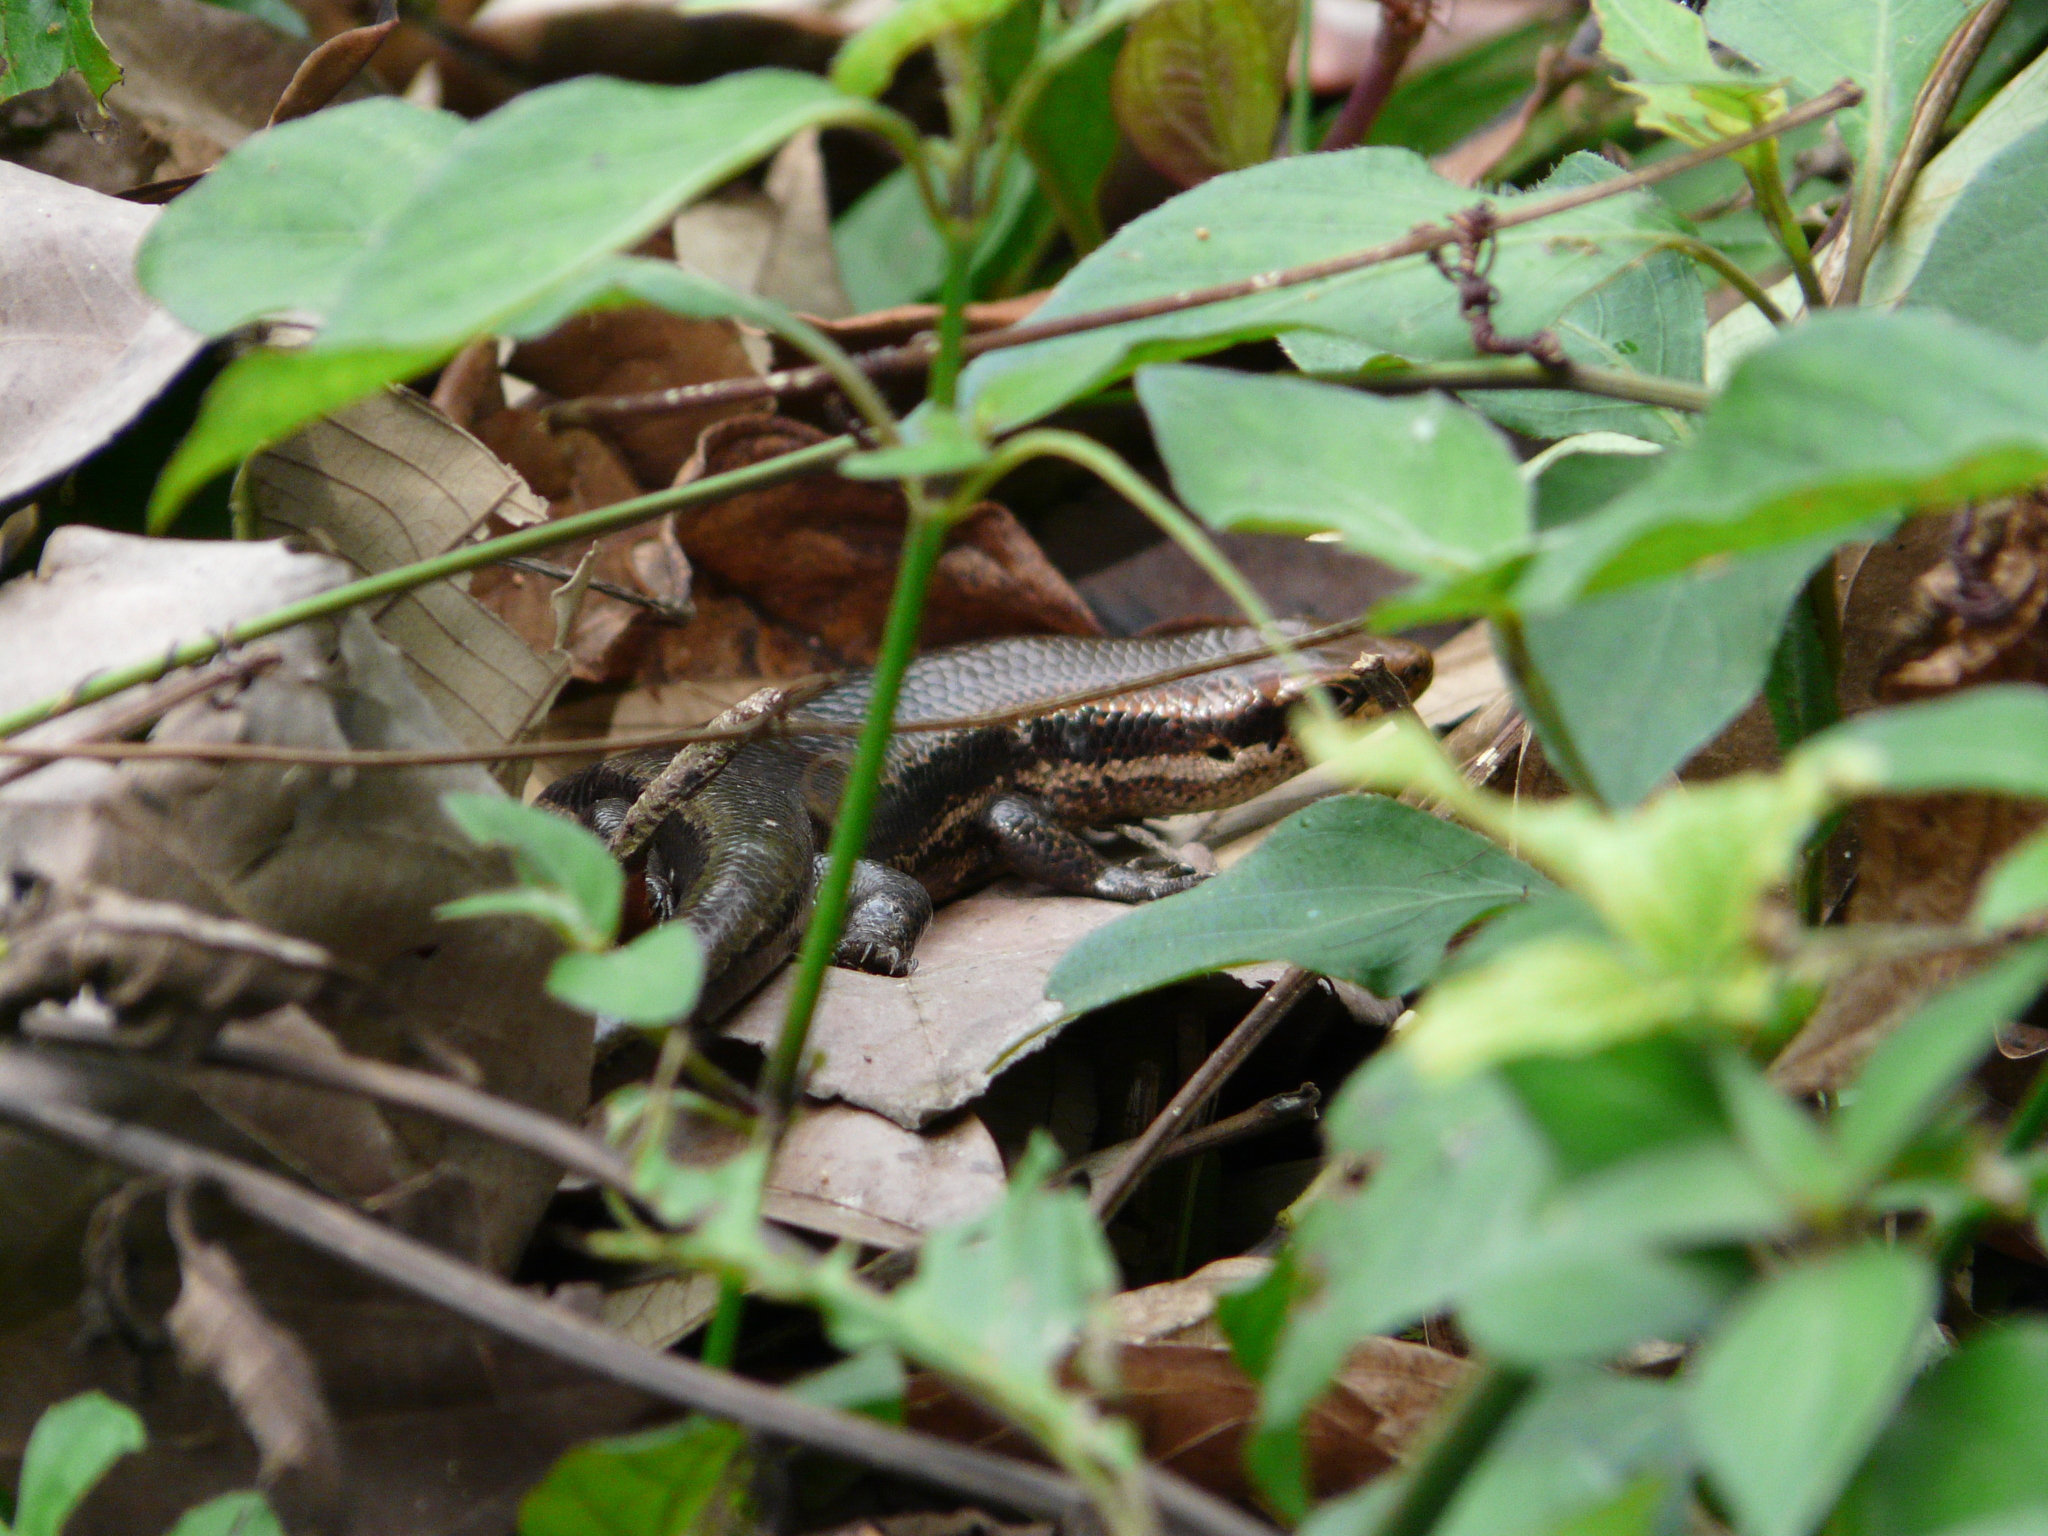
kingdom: Animalia
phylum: Chordata
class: Squamata
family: Scincidae
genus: Copeoglossum
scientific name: Copeoglossum nigropunctatum
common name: Black-spotted skink
